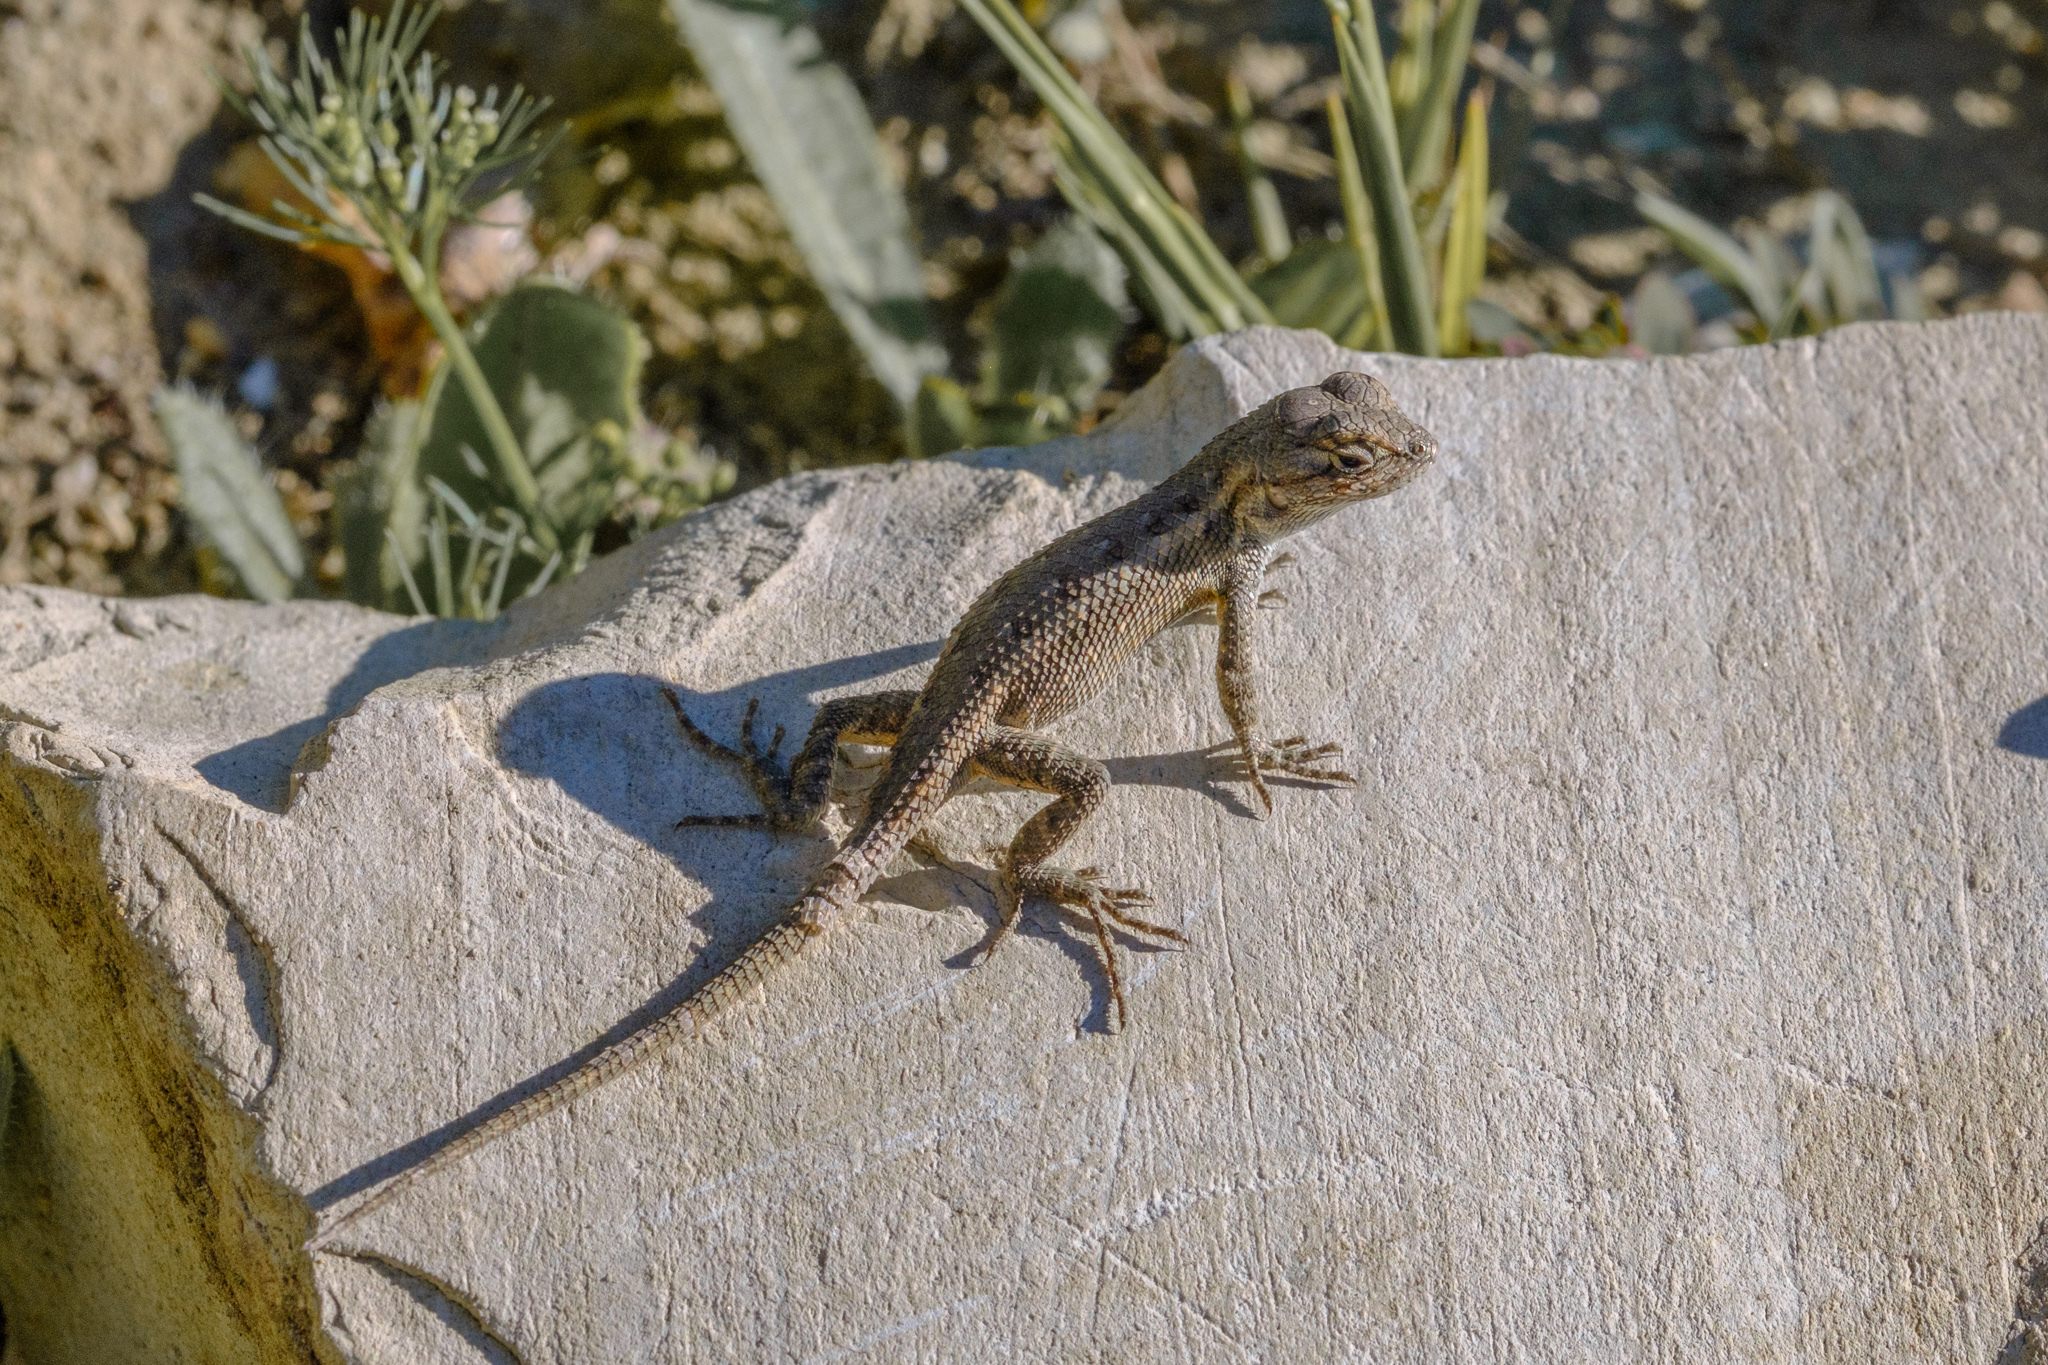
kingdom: Animalia
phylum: Chordata
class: Squamata
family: Phrynosomatidae
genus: Sceloporus
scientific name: Sceloporus occidentalis
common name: Western fence lizard
